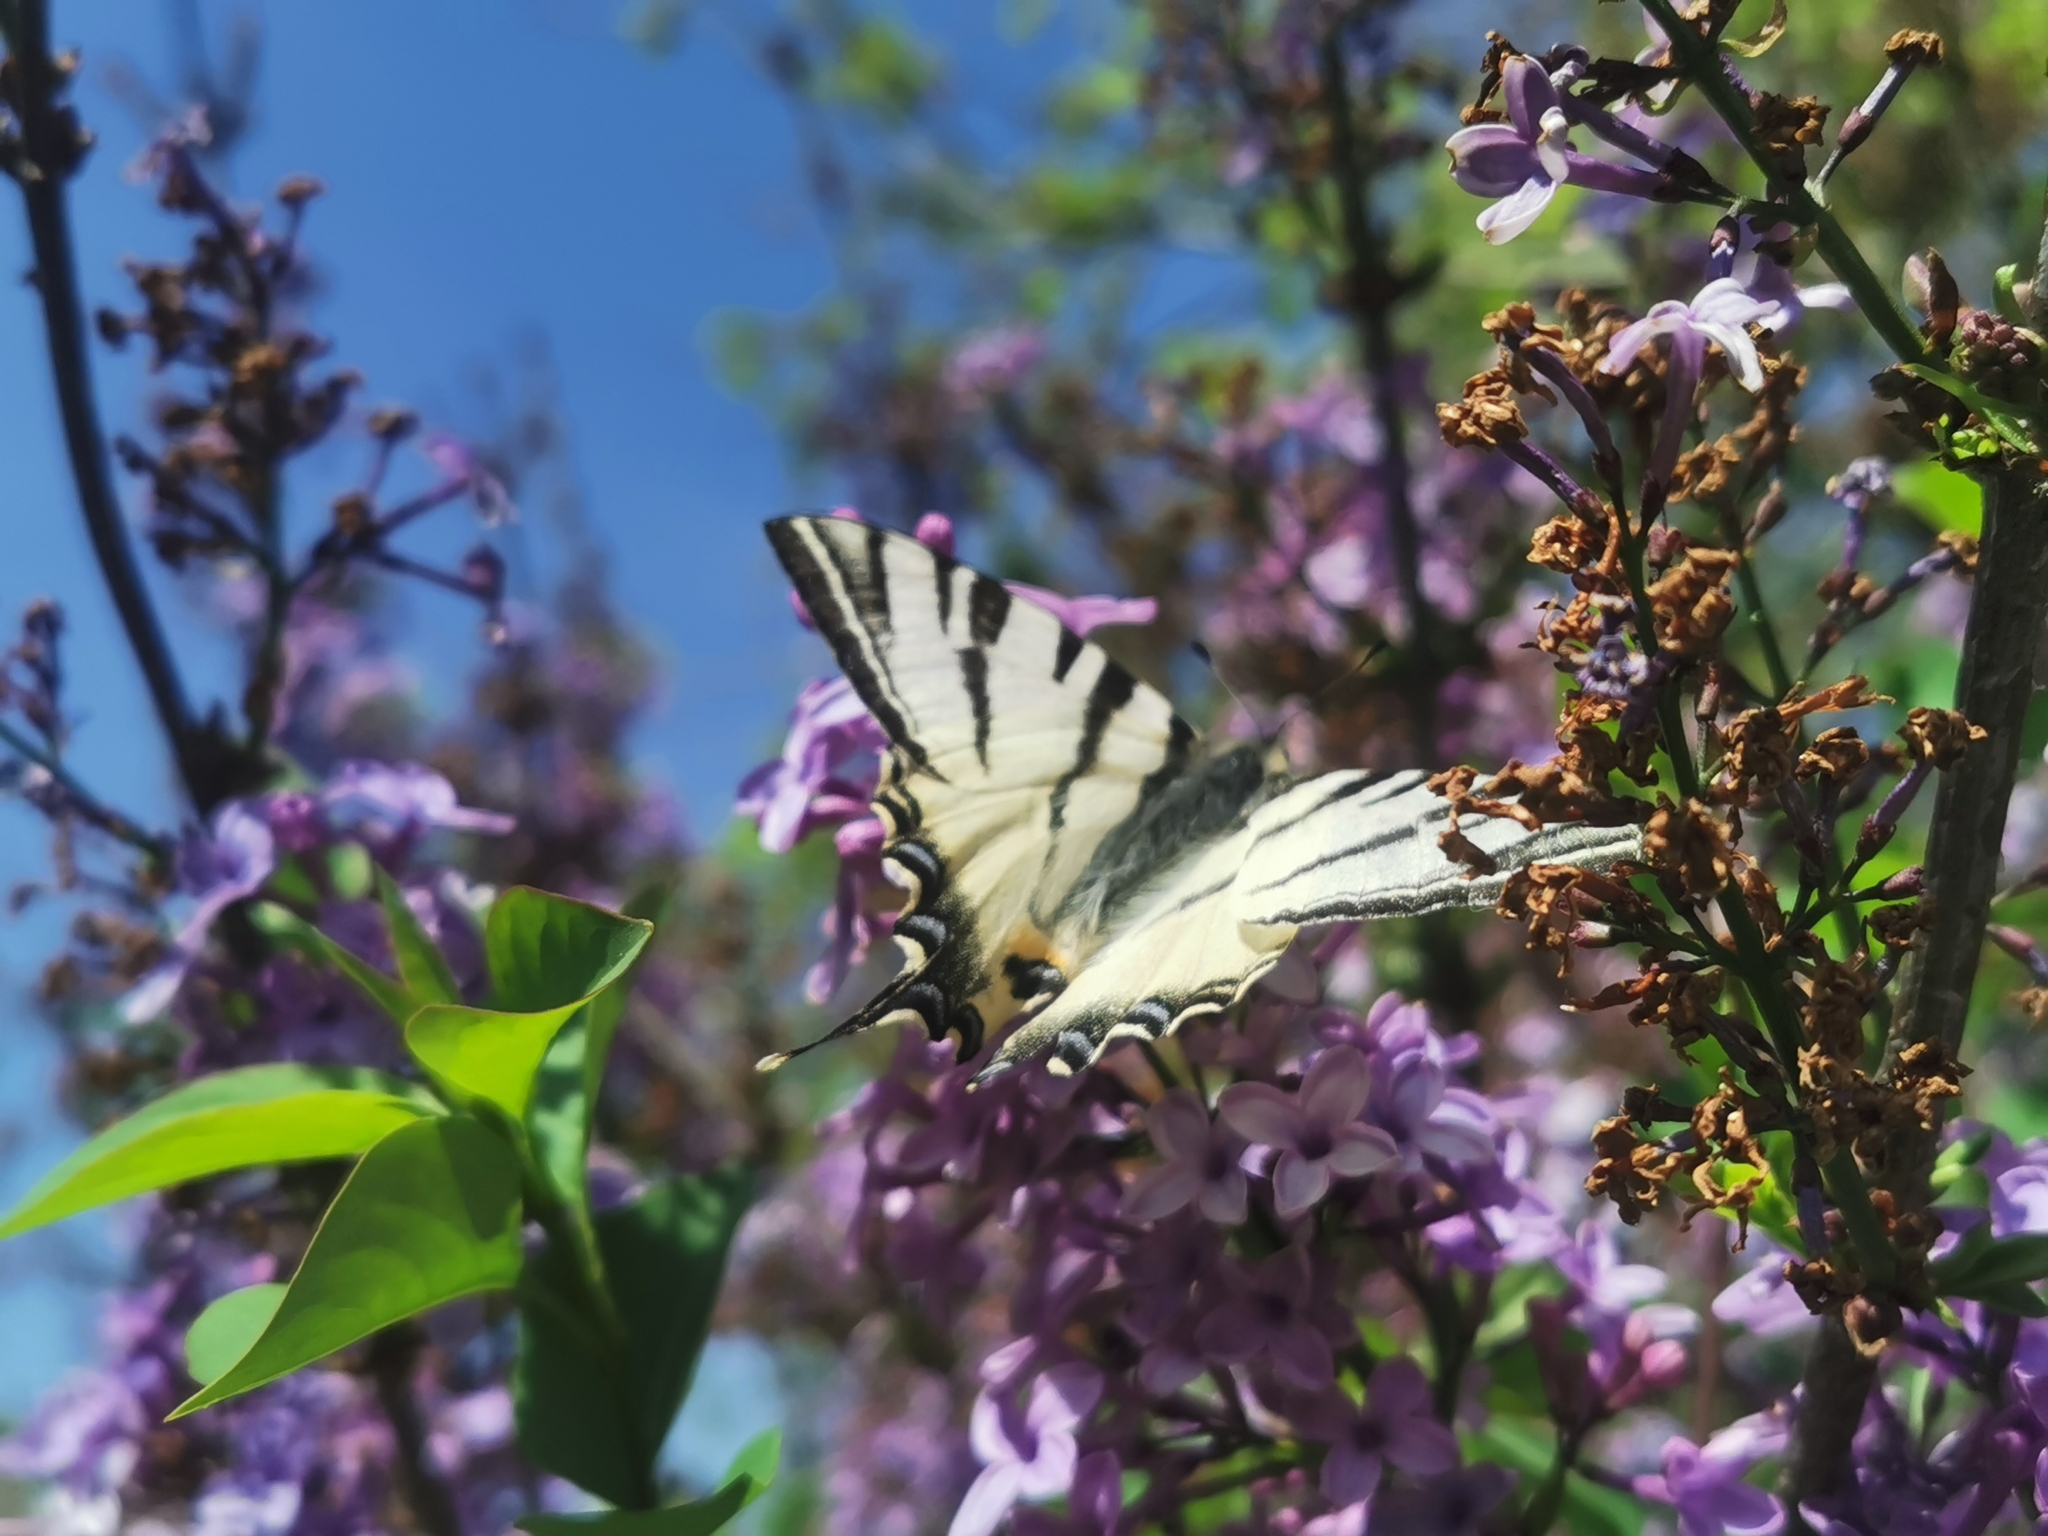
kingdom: Animalia
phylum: Arthropoda
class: Insecta
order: Lepidoptera
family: Papilionidae
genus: Iphiclides
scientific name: Iphiclides podalirius
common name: Scarce swallowtail
